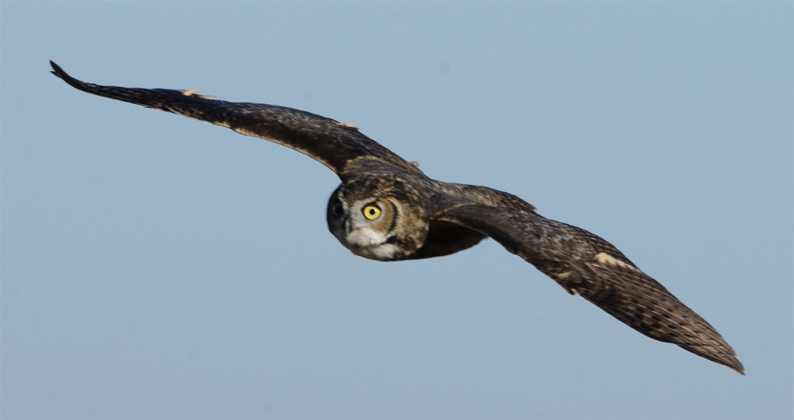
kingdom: Animalia
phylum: Chordata
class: Aves
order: Strigiformes
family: Strigidae
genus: Bubo
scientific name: Bubo virginianus
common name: Great horned owl
